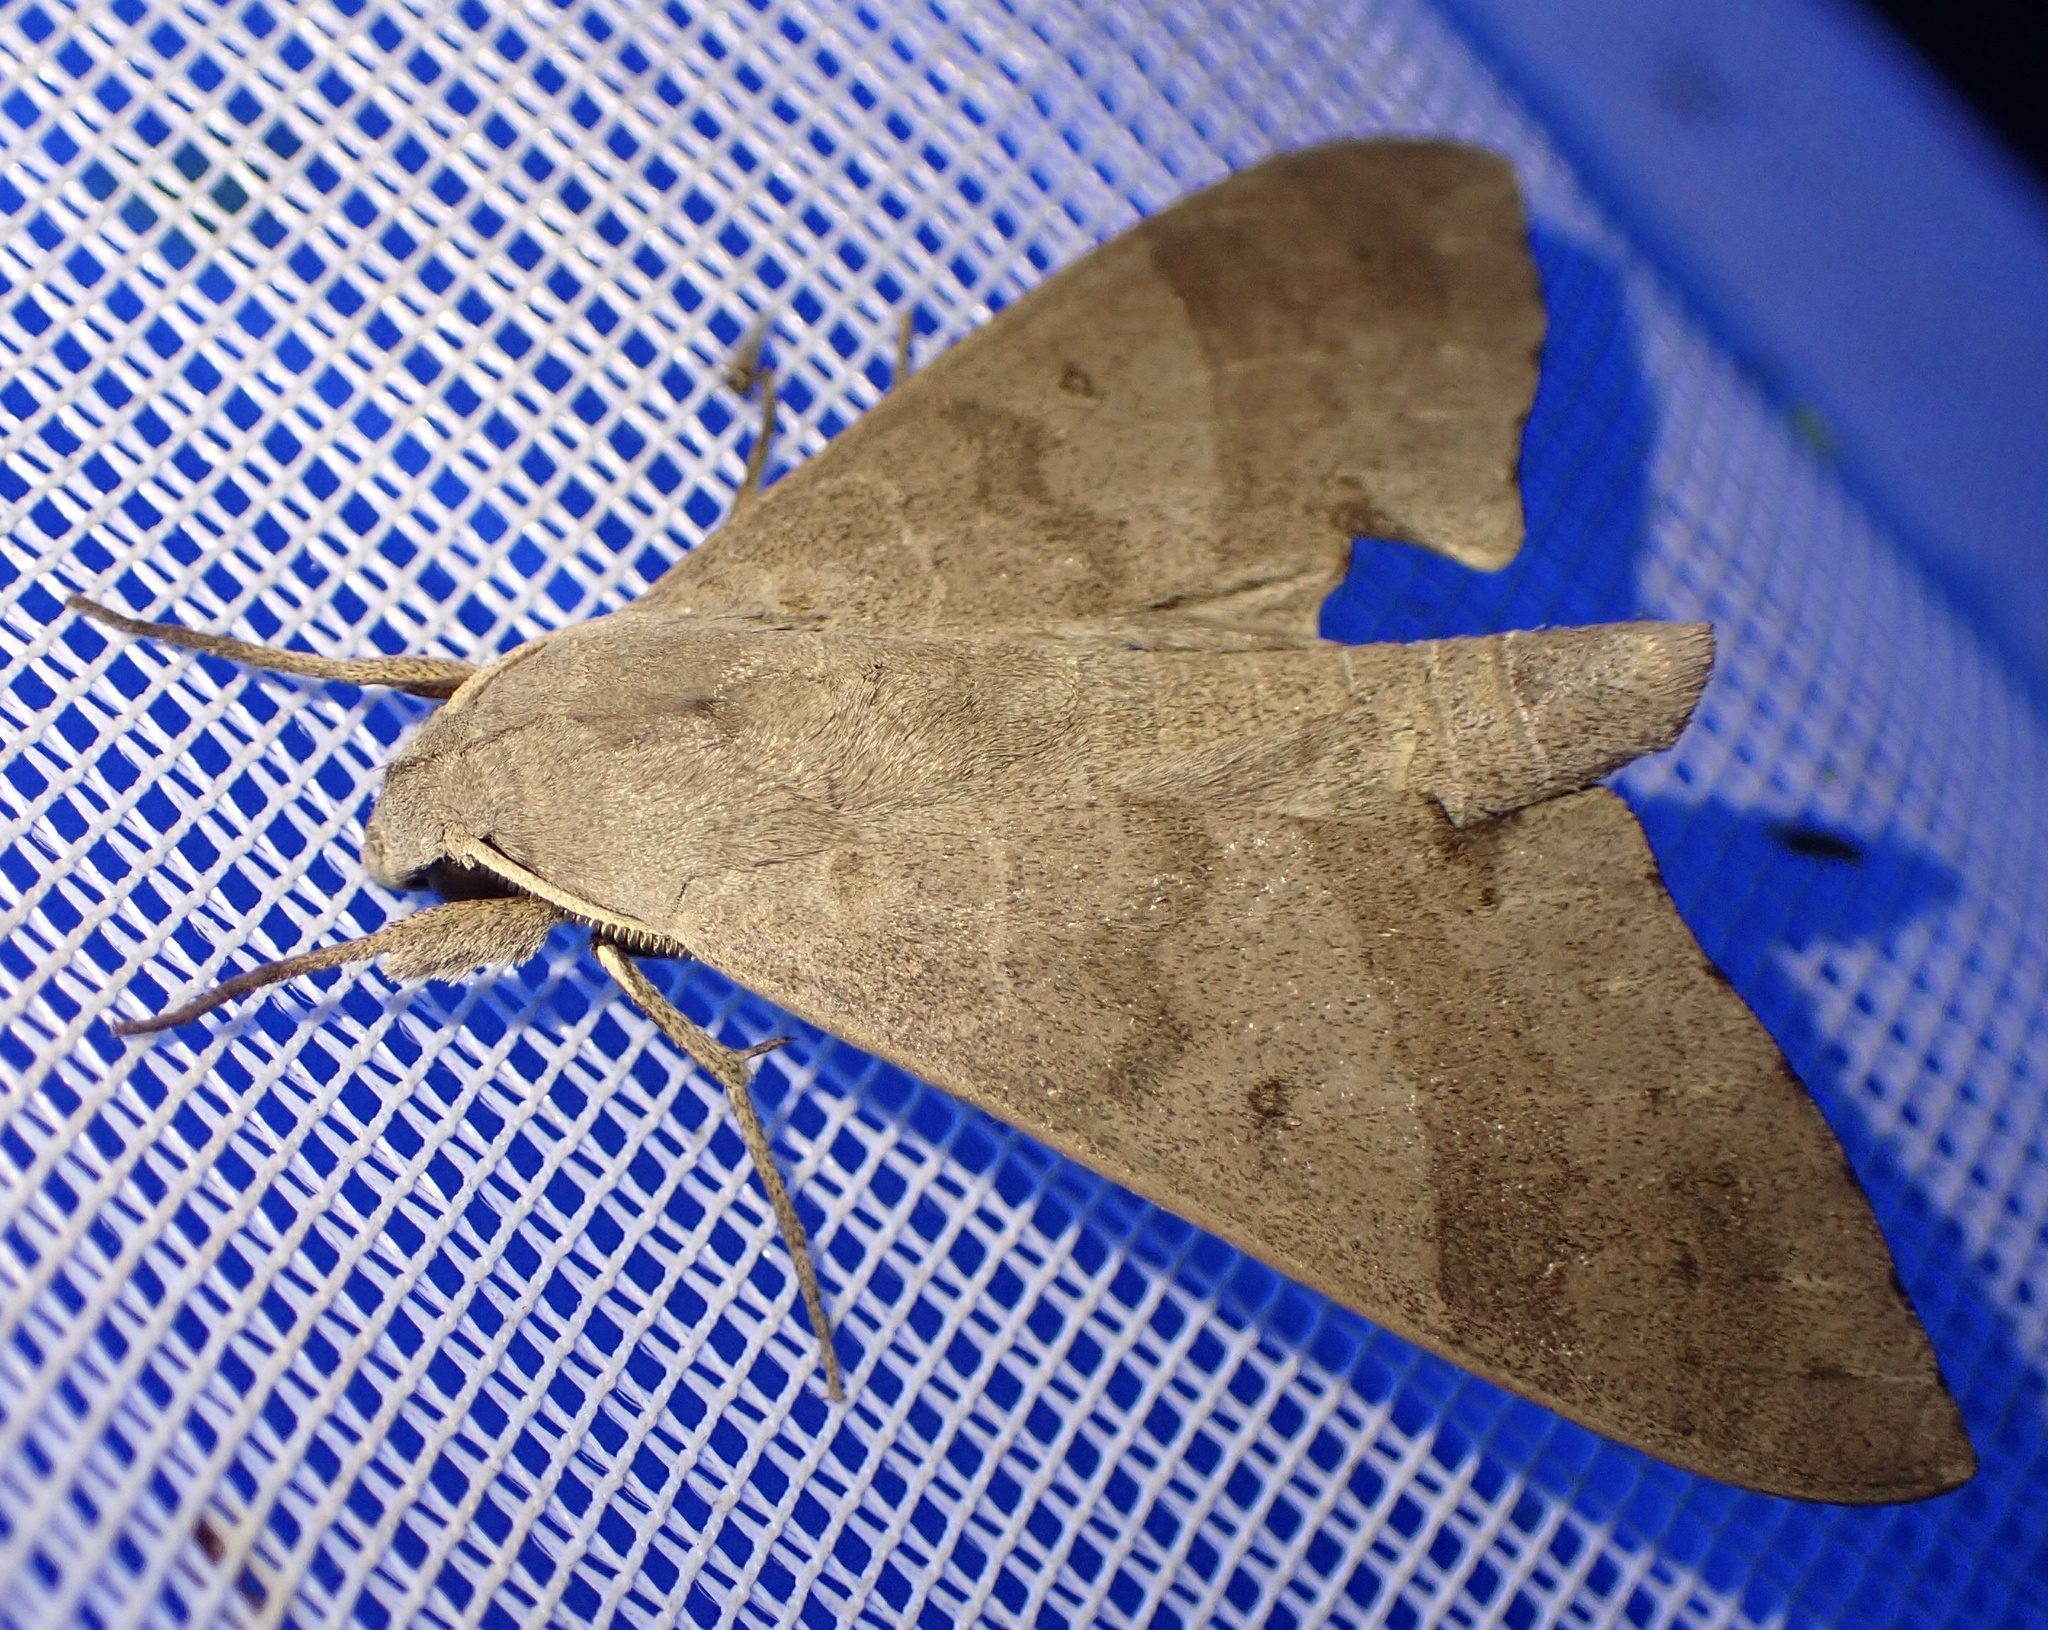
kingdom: Animalia
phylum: Arthropoda
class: Insecta
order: Lepidoptera
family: Sphingidae
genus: Polyptychus
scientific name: Polyptychus carteri
